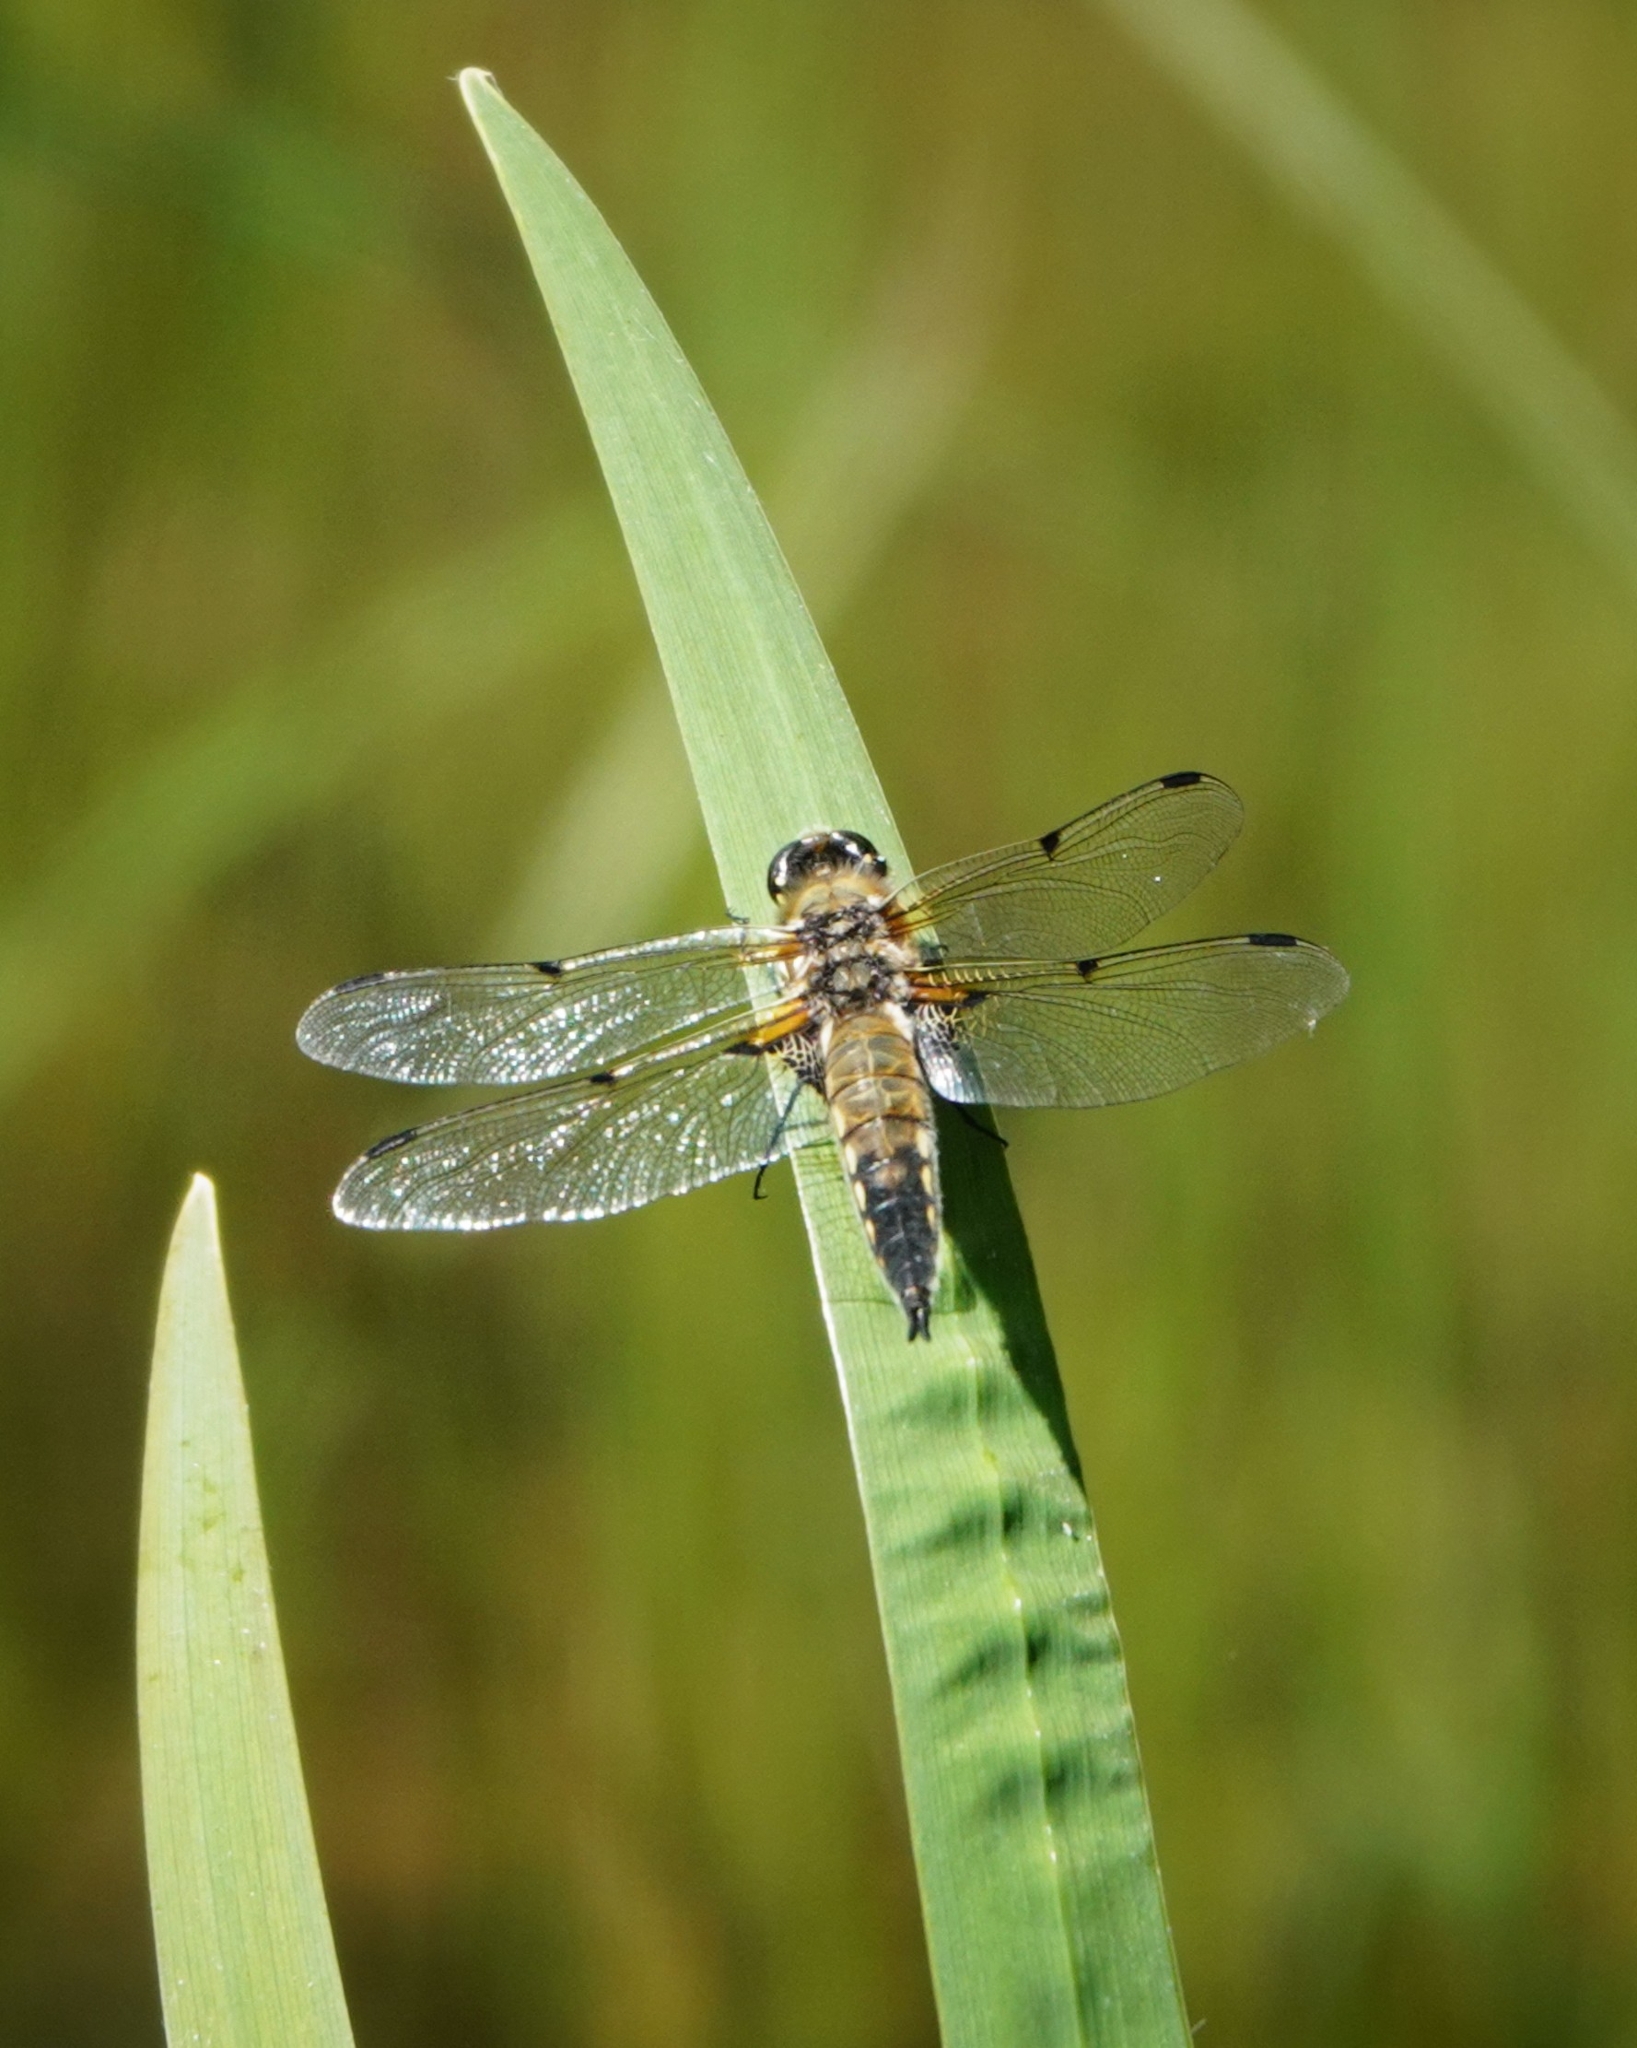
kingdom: Animalia
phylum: Arthropoda
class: Insecta
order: Odonata
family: Libellulidae
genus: Libellula
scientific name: Libellula quadrimaculata
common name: Four-spotted chaser
